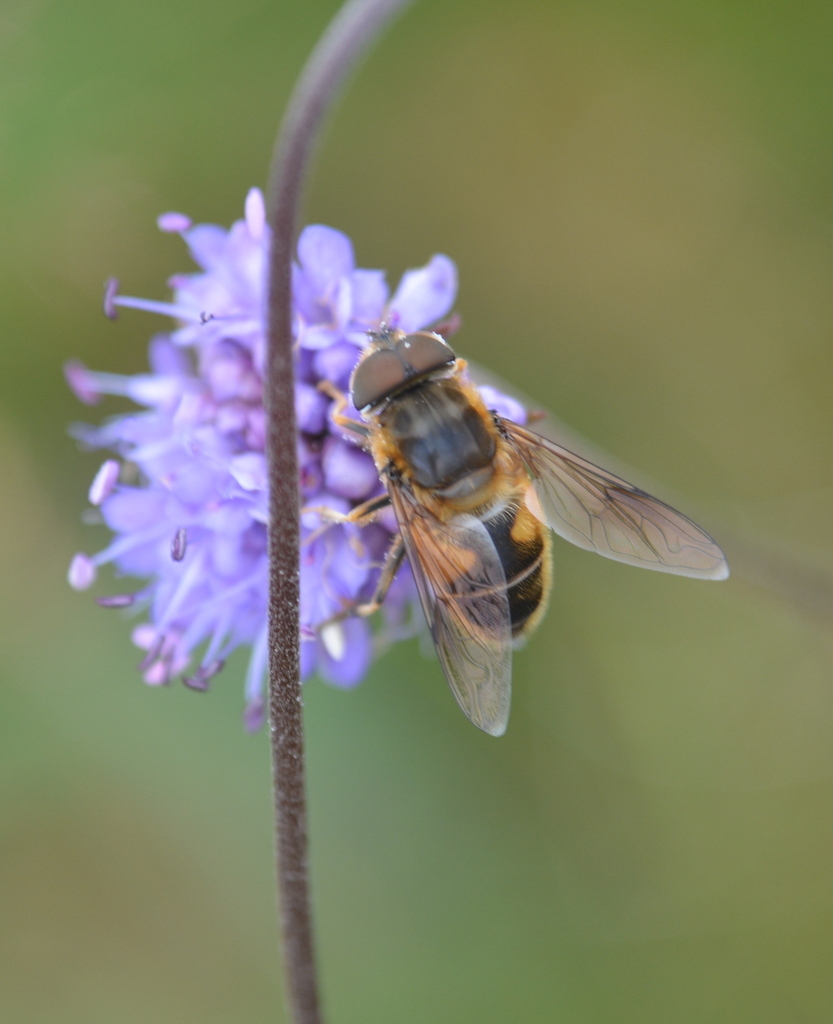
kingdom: Animalia
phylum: Arthropoda
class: Insecta
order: Diptera
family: Syrphidae
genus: Eristalis
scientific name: Eristalis pertinax
